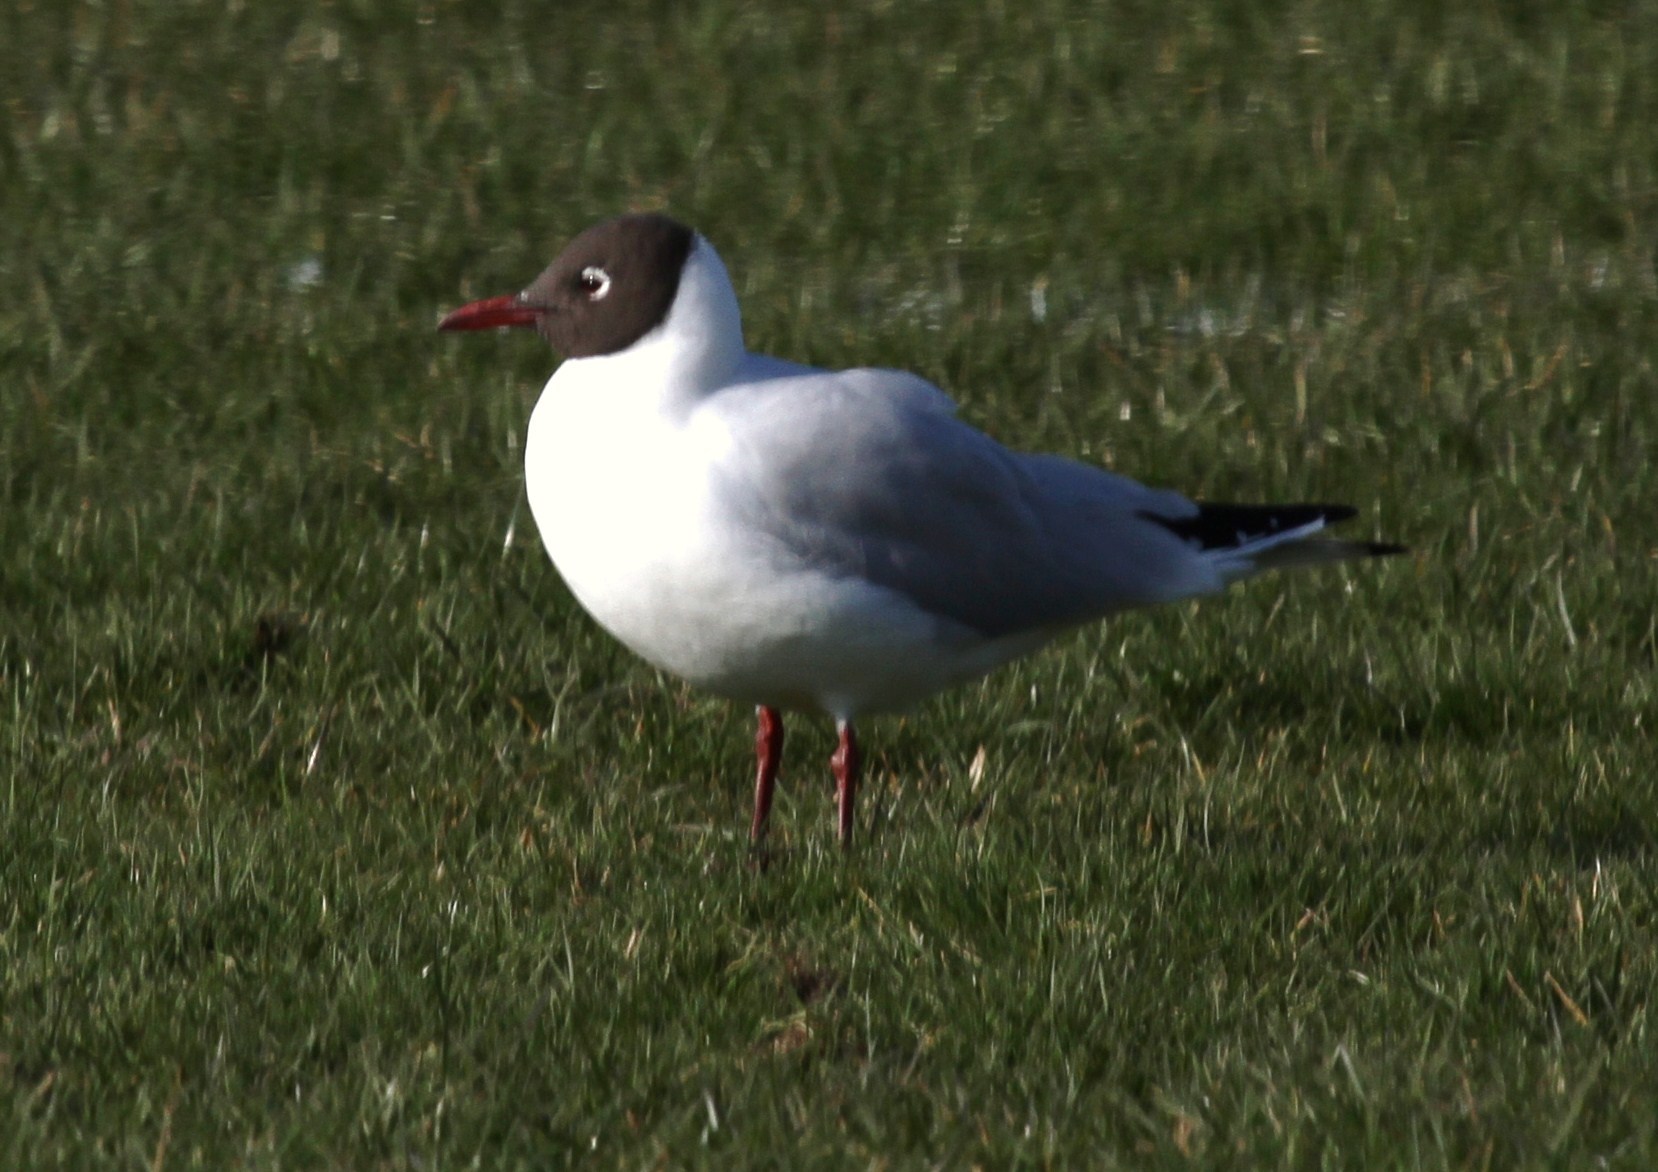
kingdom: Animalia
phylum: Chordata
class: Aves
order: Charadriiformes
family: Laridae
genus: Chroicocephalus
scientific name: Chroicocephalus ridibundus
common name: Black-headed gull
